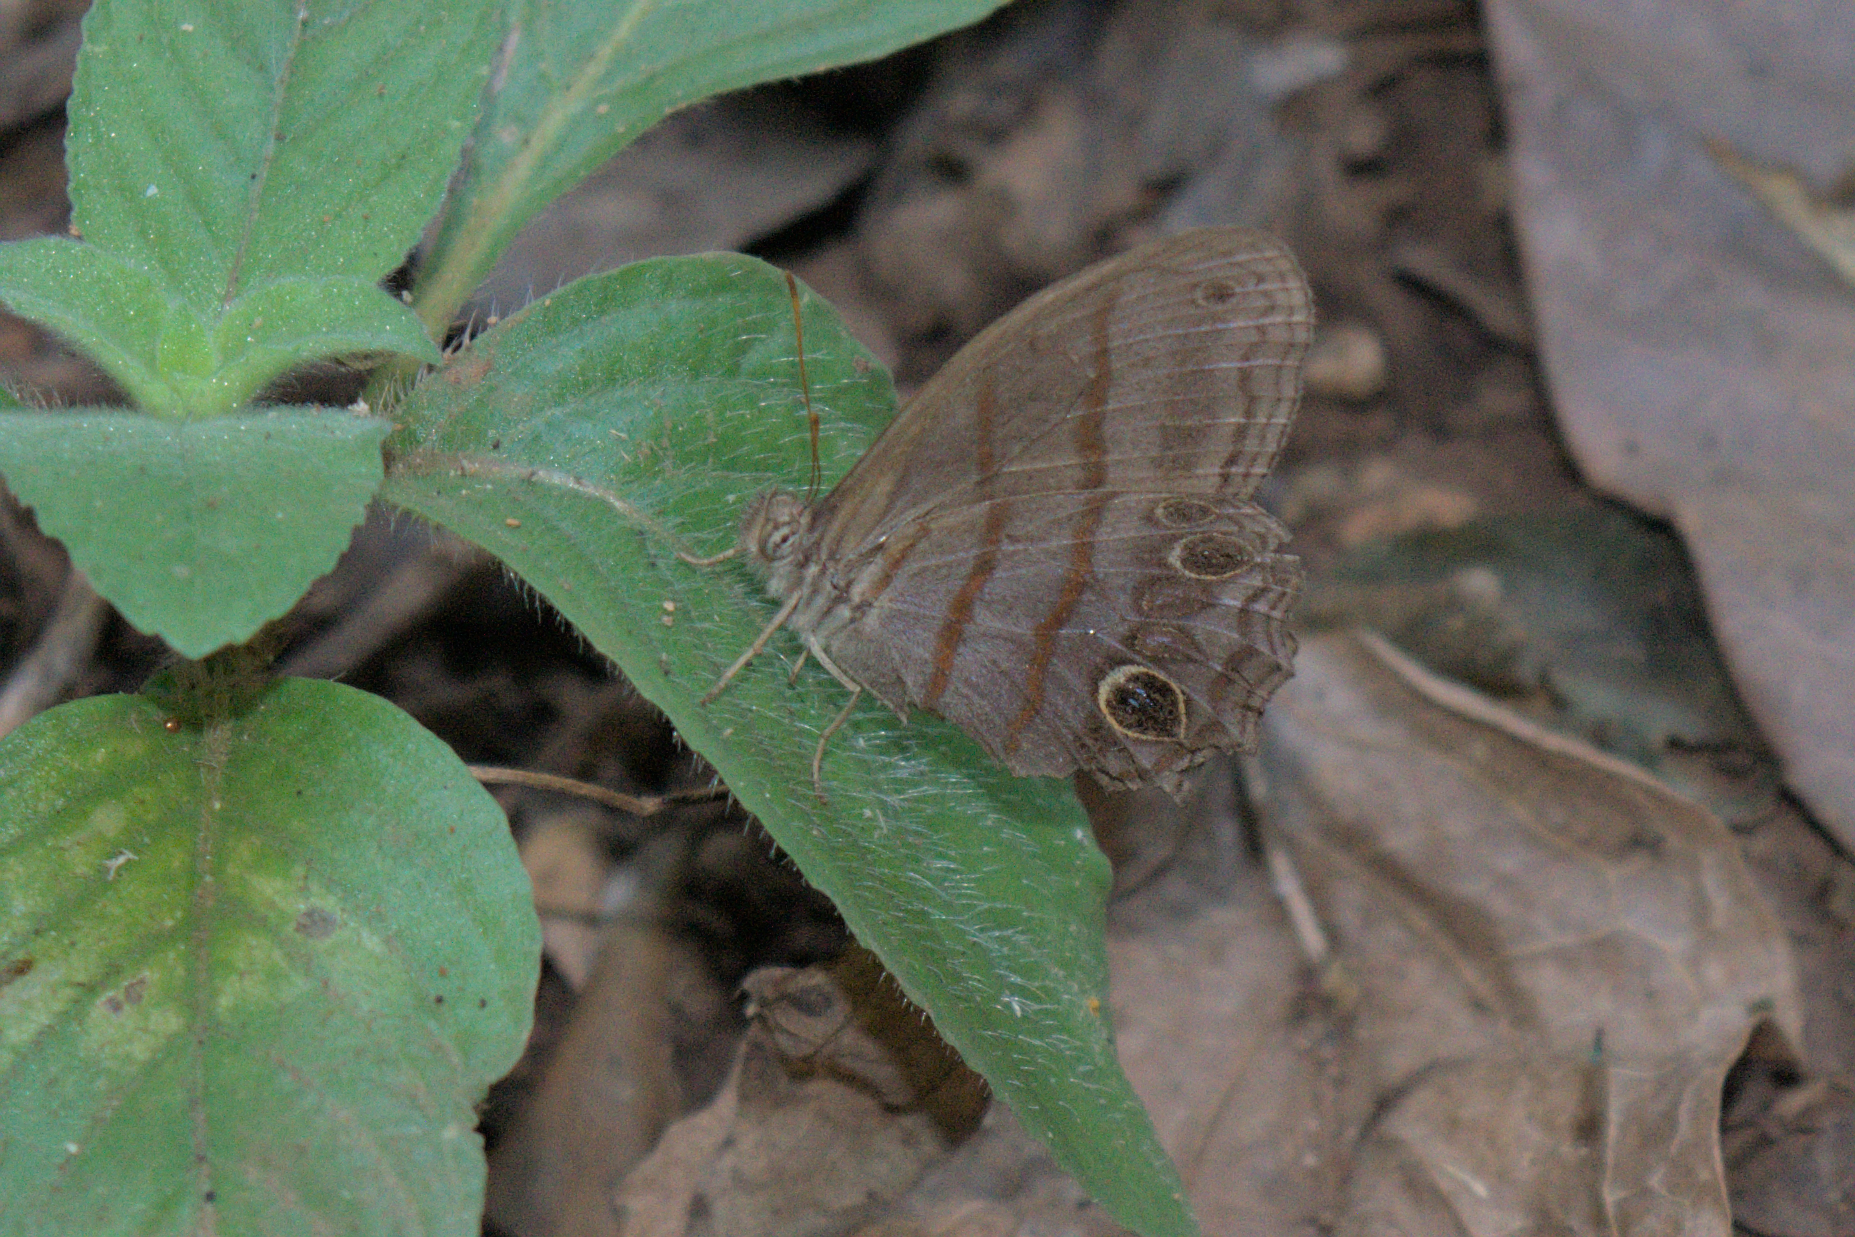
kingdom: Animalia
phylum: Arthropoda
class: Insecta
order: Lepidoptera
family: Nymphalidae
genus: Magneuptychia
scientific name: Magneuptychia libye
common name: Blue-gray satyr
